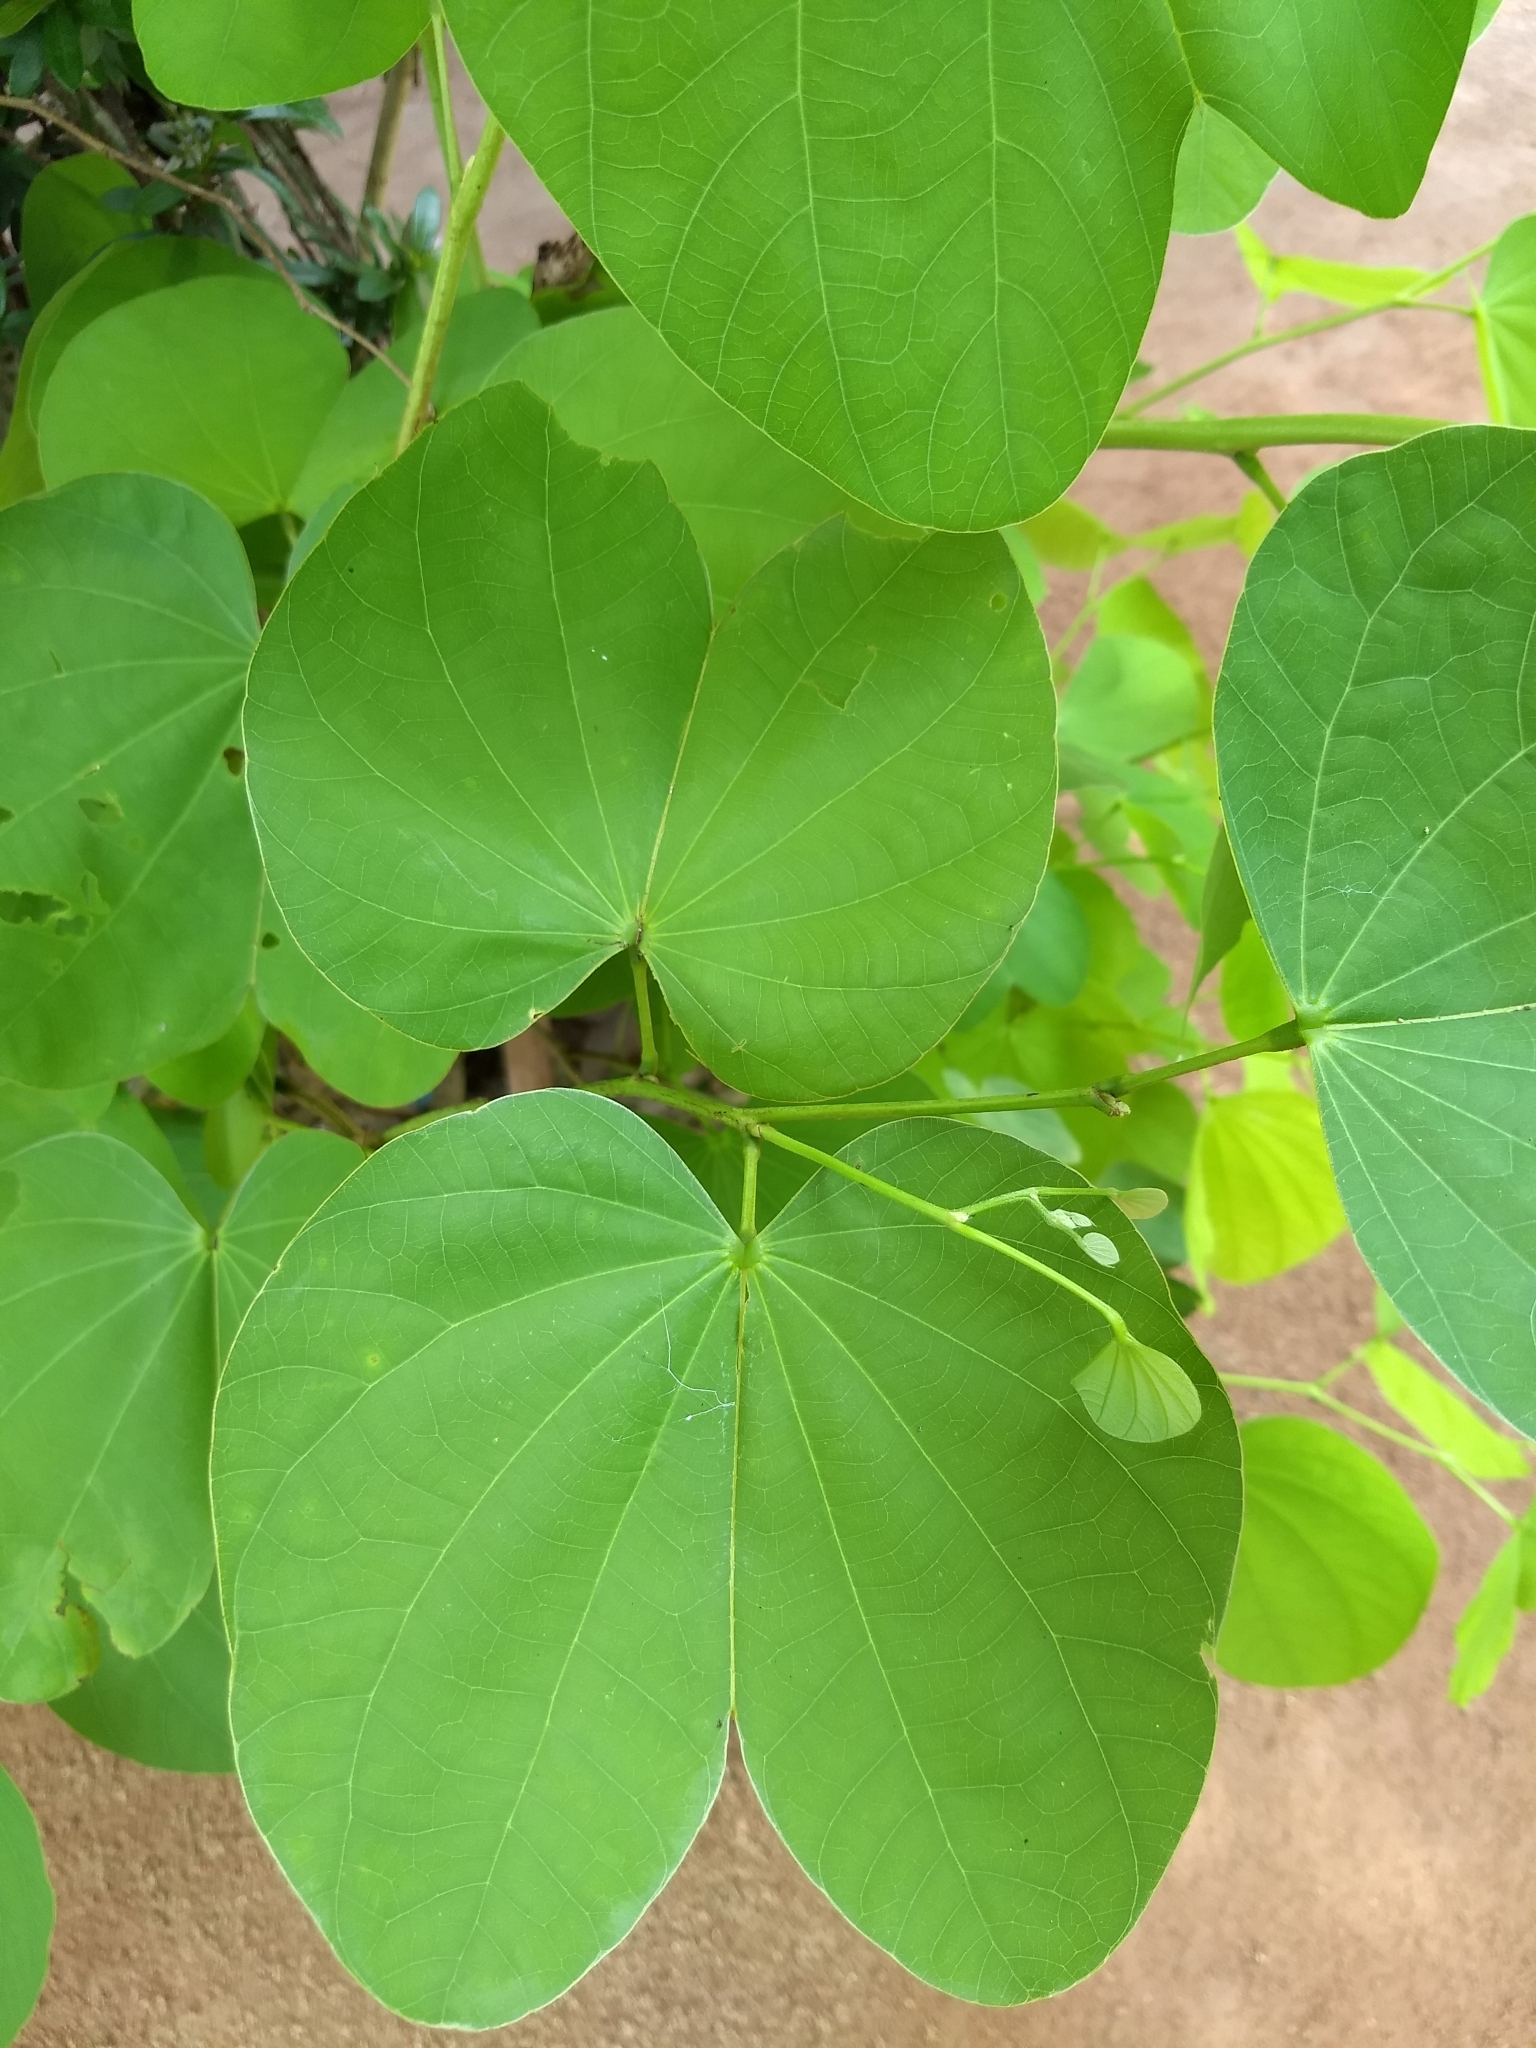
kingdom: Plantae
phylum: Tracheophyta
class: Magnoliopsida
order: Fabales
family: Fabaceae
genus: Bauhinia
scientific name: Bauhinia purpurea
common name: Butterfly-tree
